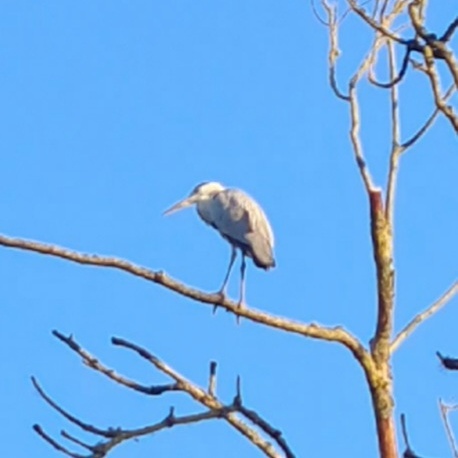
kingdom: Animalia
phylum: Chordata
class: Aves
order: Pelecaniformes
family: Ardeidae
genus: Ardea
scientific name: Ardea cinerea
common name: Grey heron
